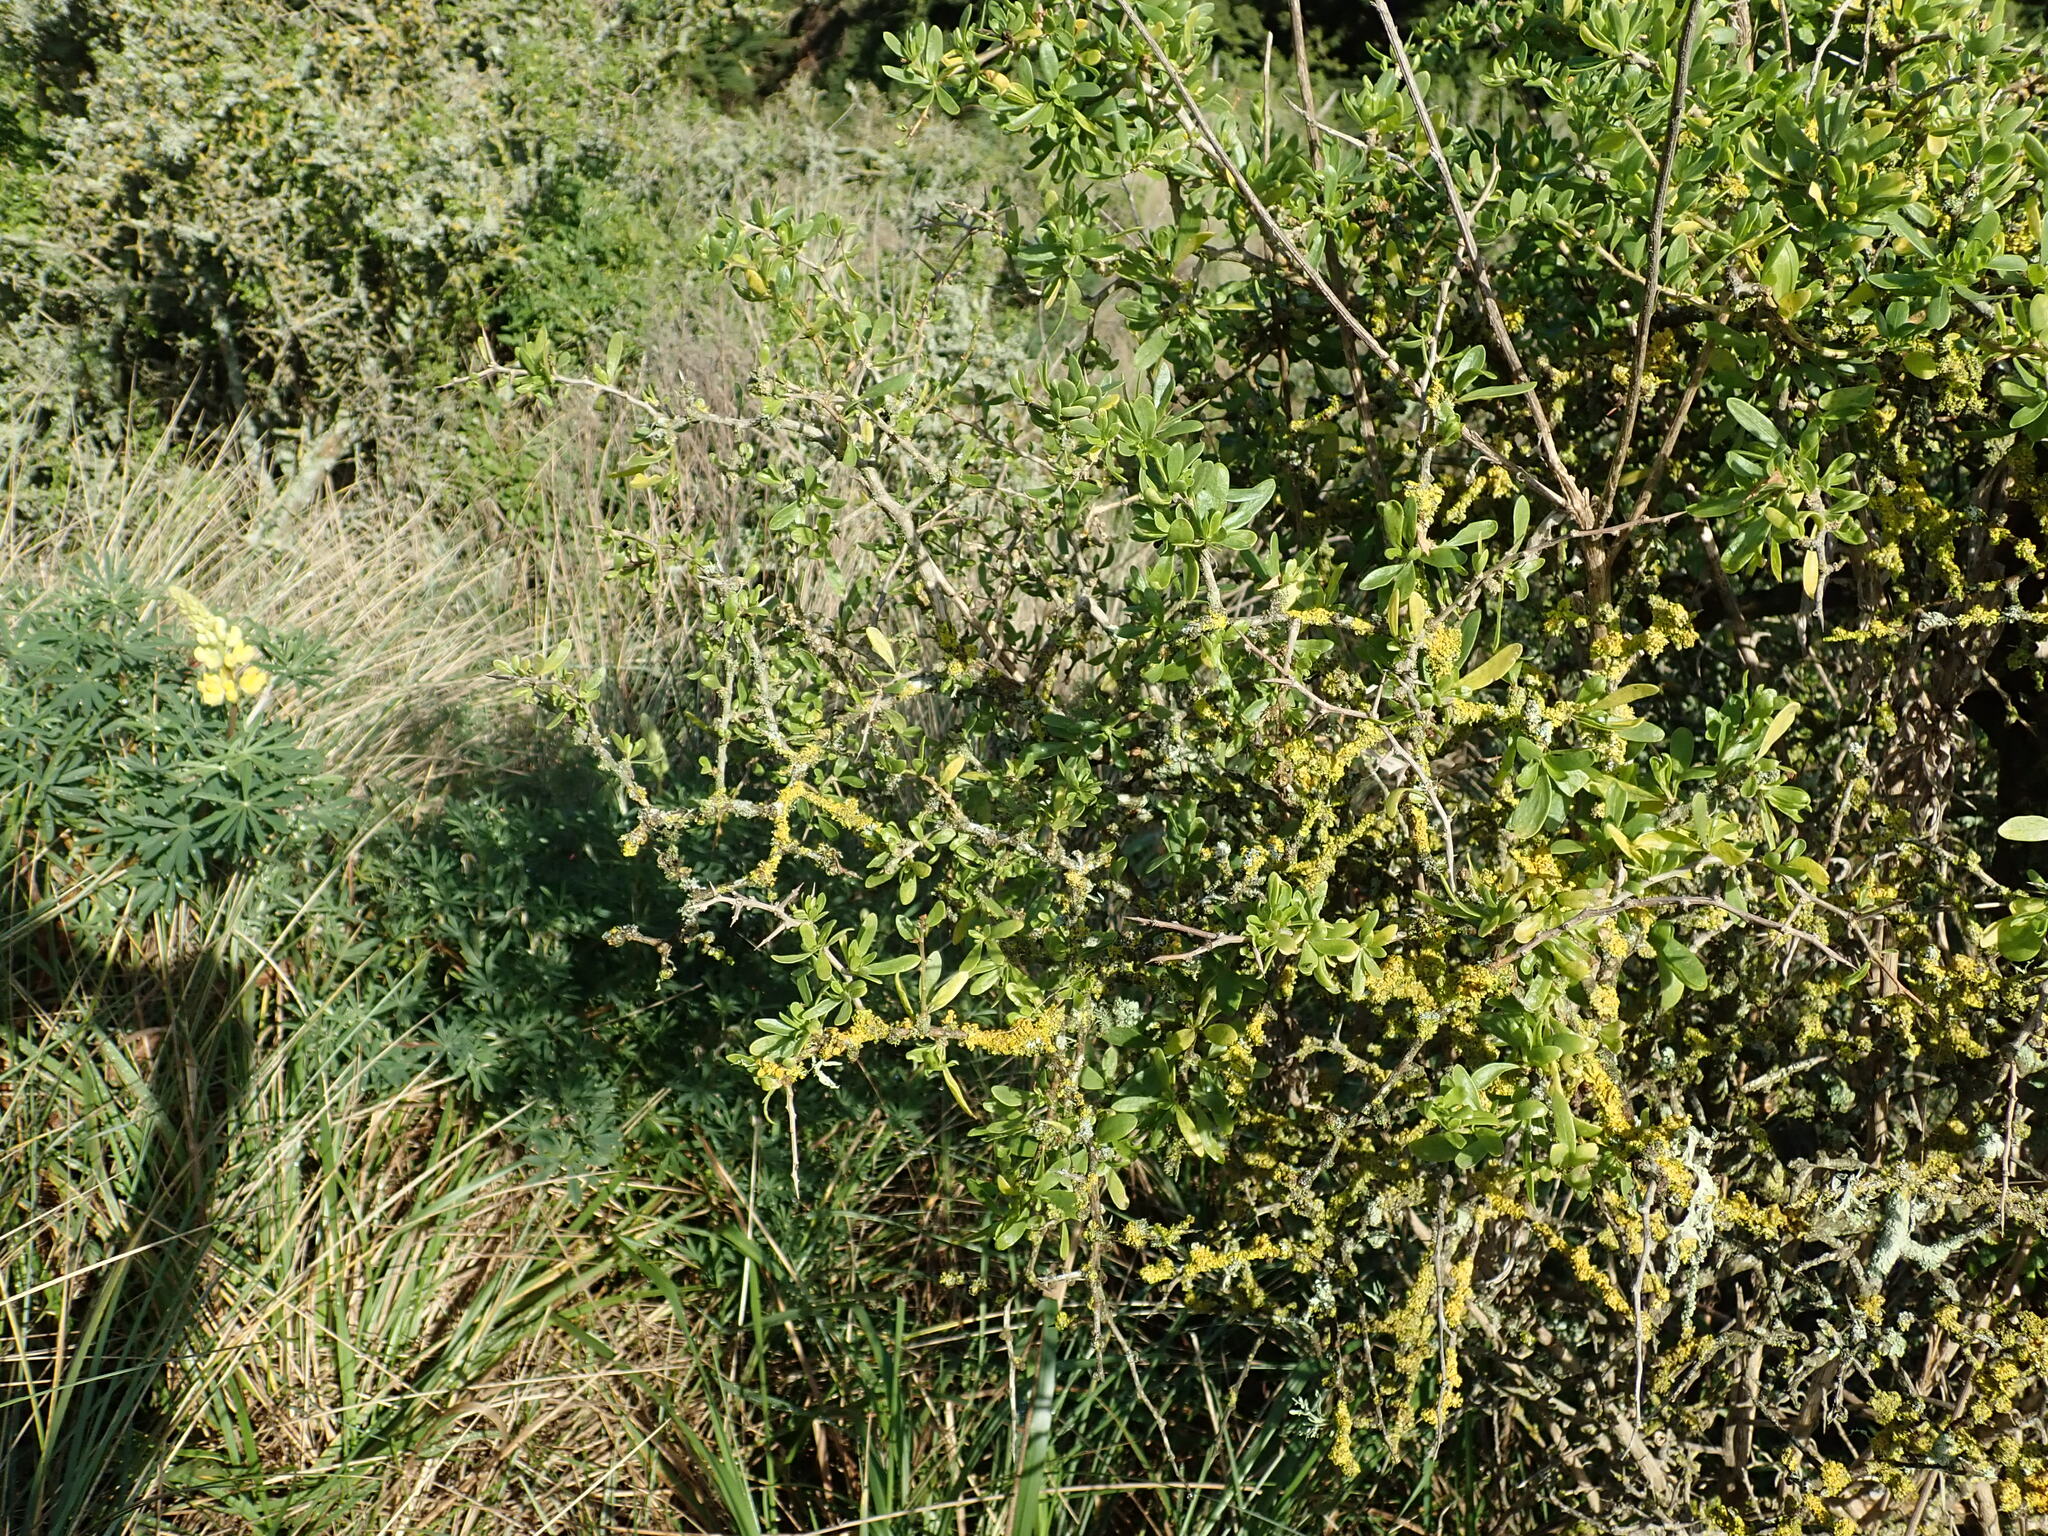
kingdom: Plantae
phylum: Tracheophyta
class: Magnoliopsida
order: Solanales
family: Solanaceae
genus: Lycium
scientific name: Lycium ferocissimum
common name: African boxthorn
